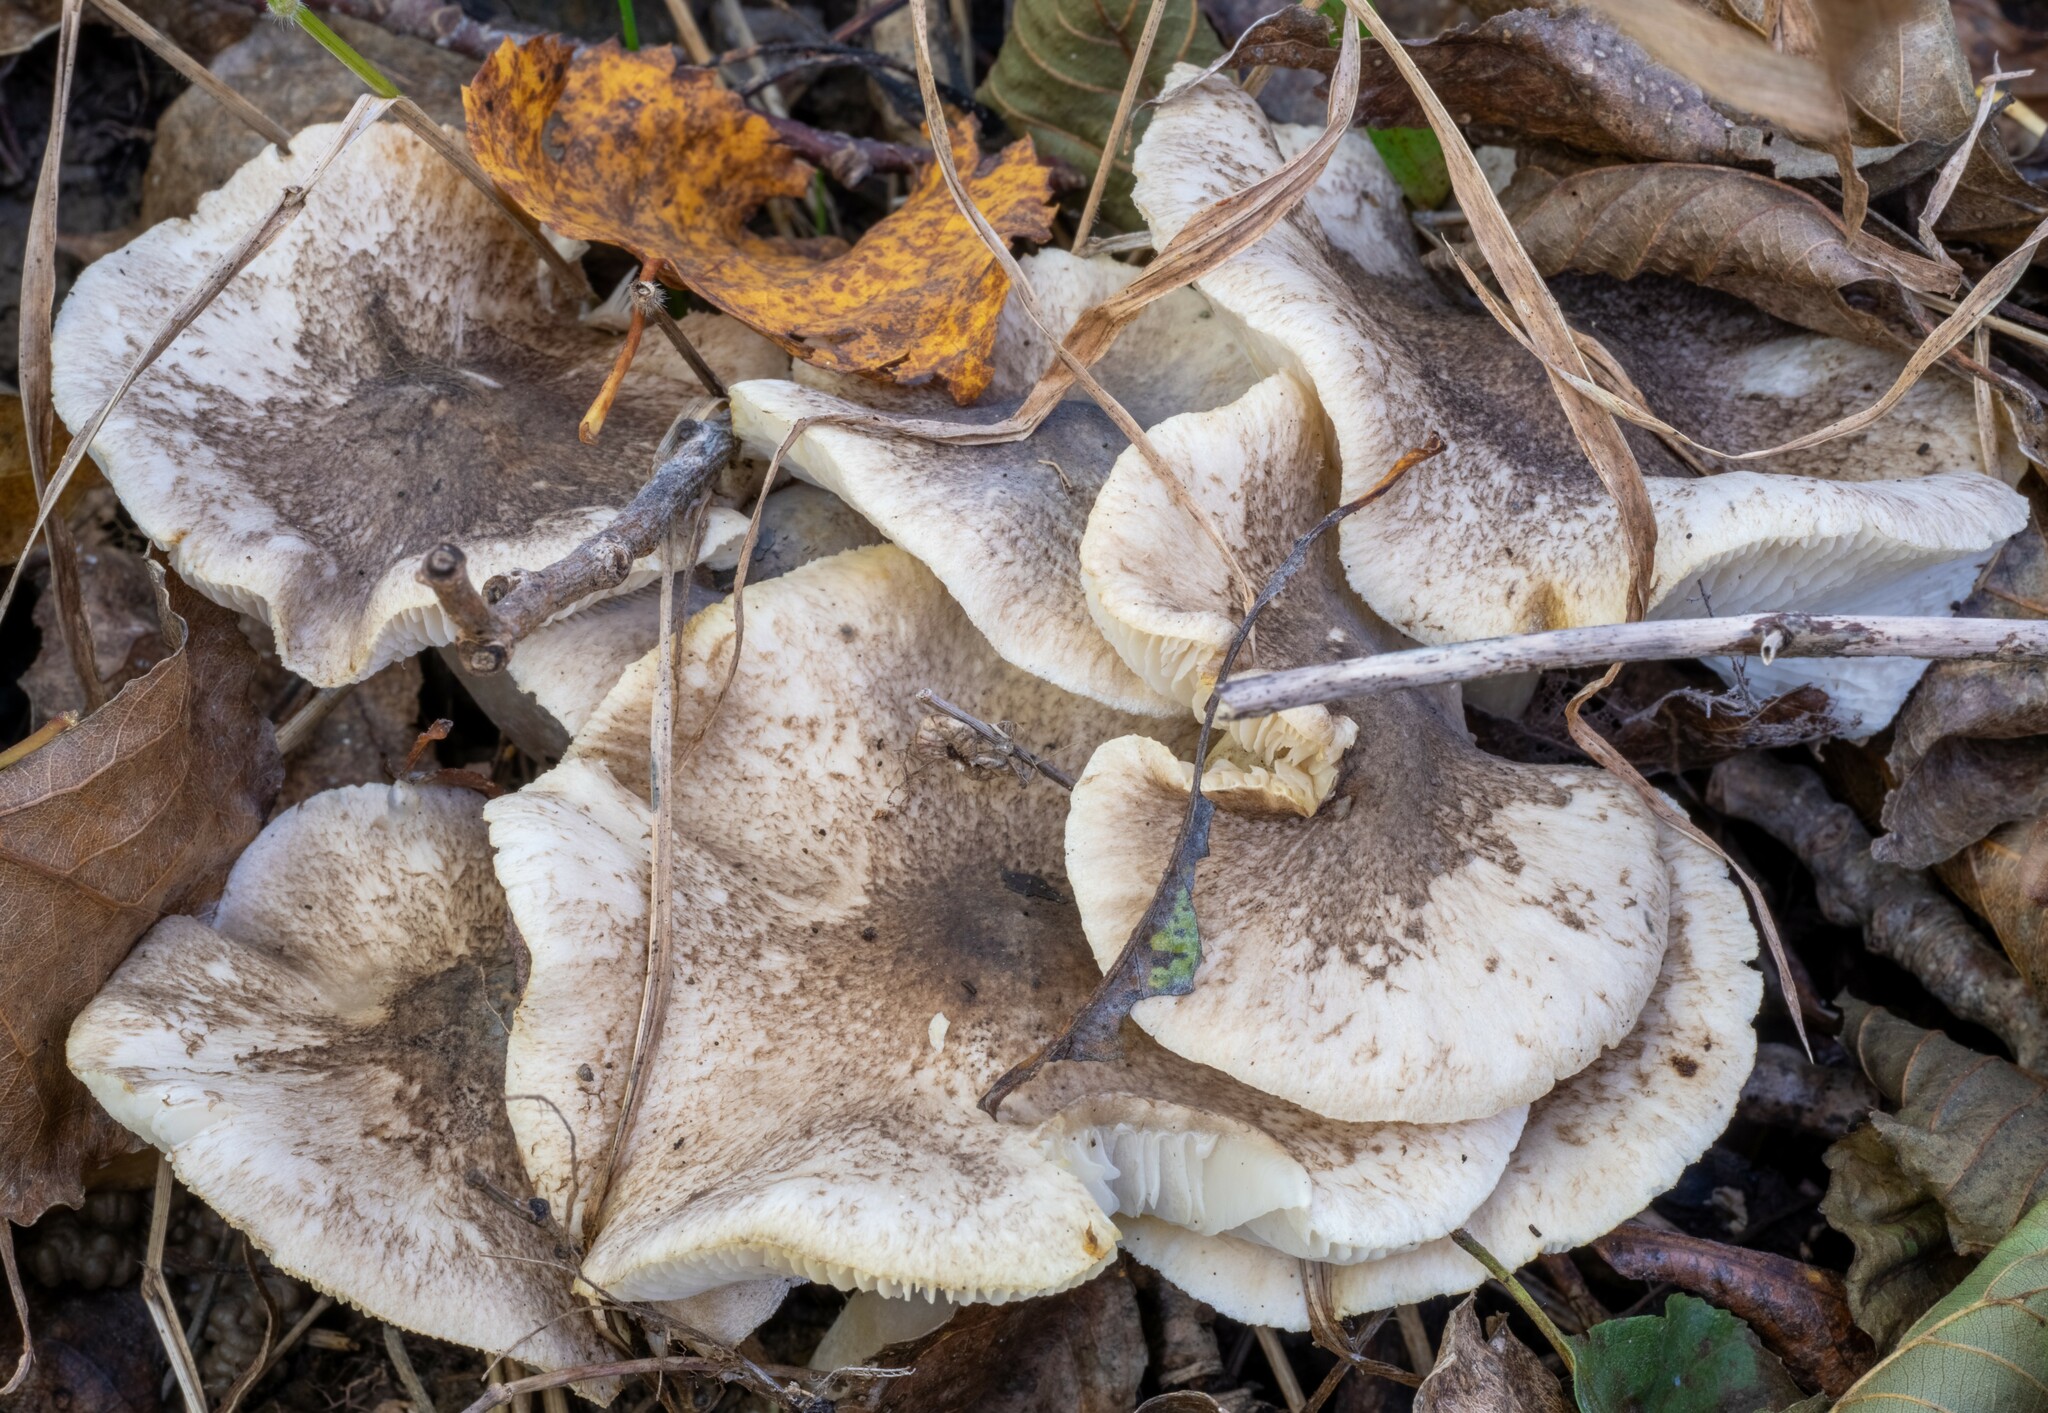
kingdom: Fungi
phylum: Basidiomycota
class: Agaricomycetes
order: Agaricales
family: Tricholomataceae
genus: Tricholoma
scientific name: Tricholoma scalpturatum
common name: Yellowing knight
